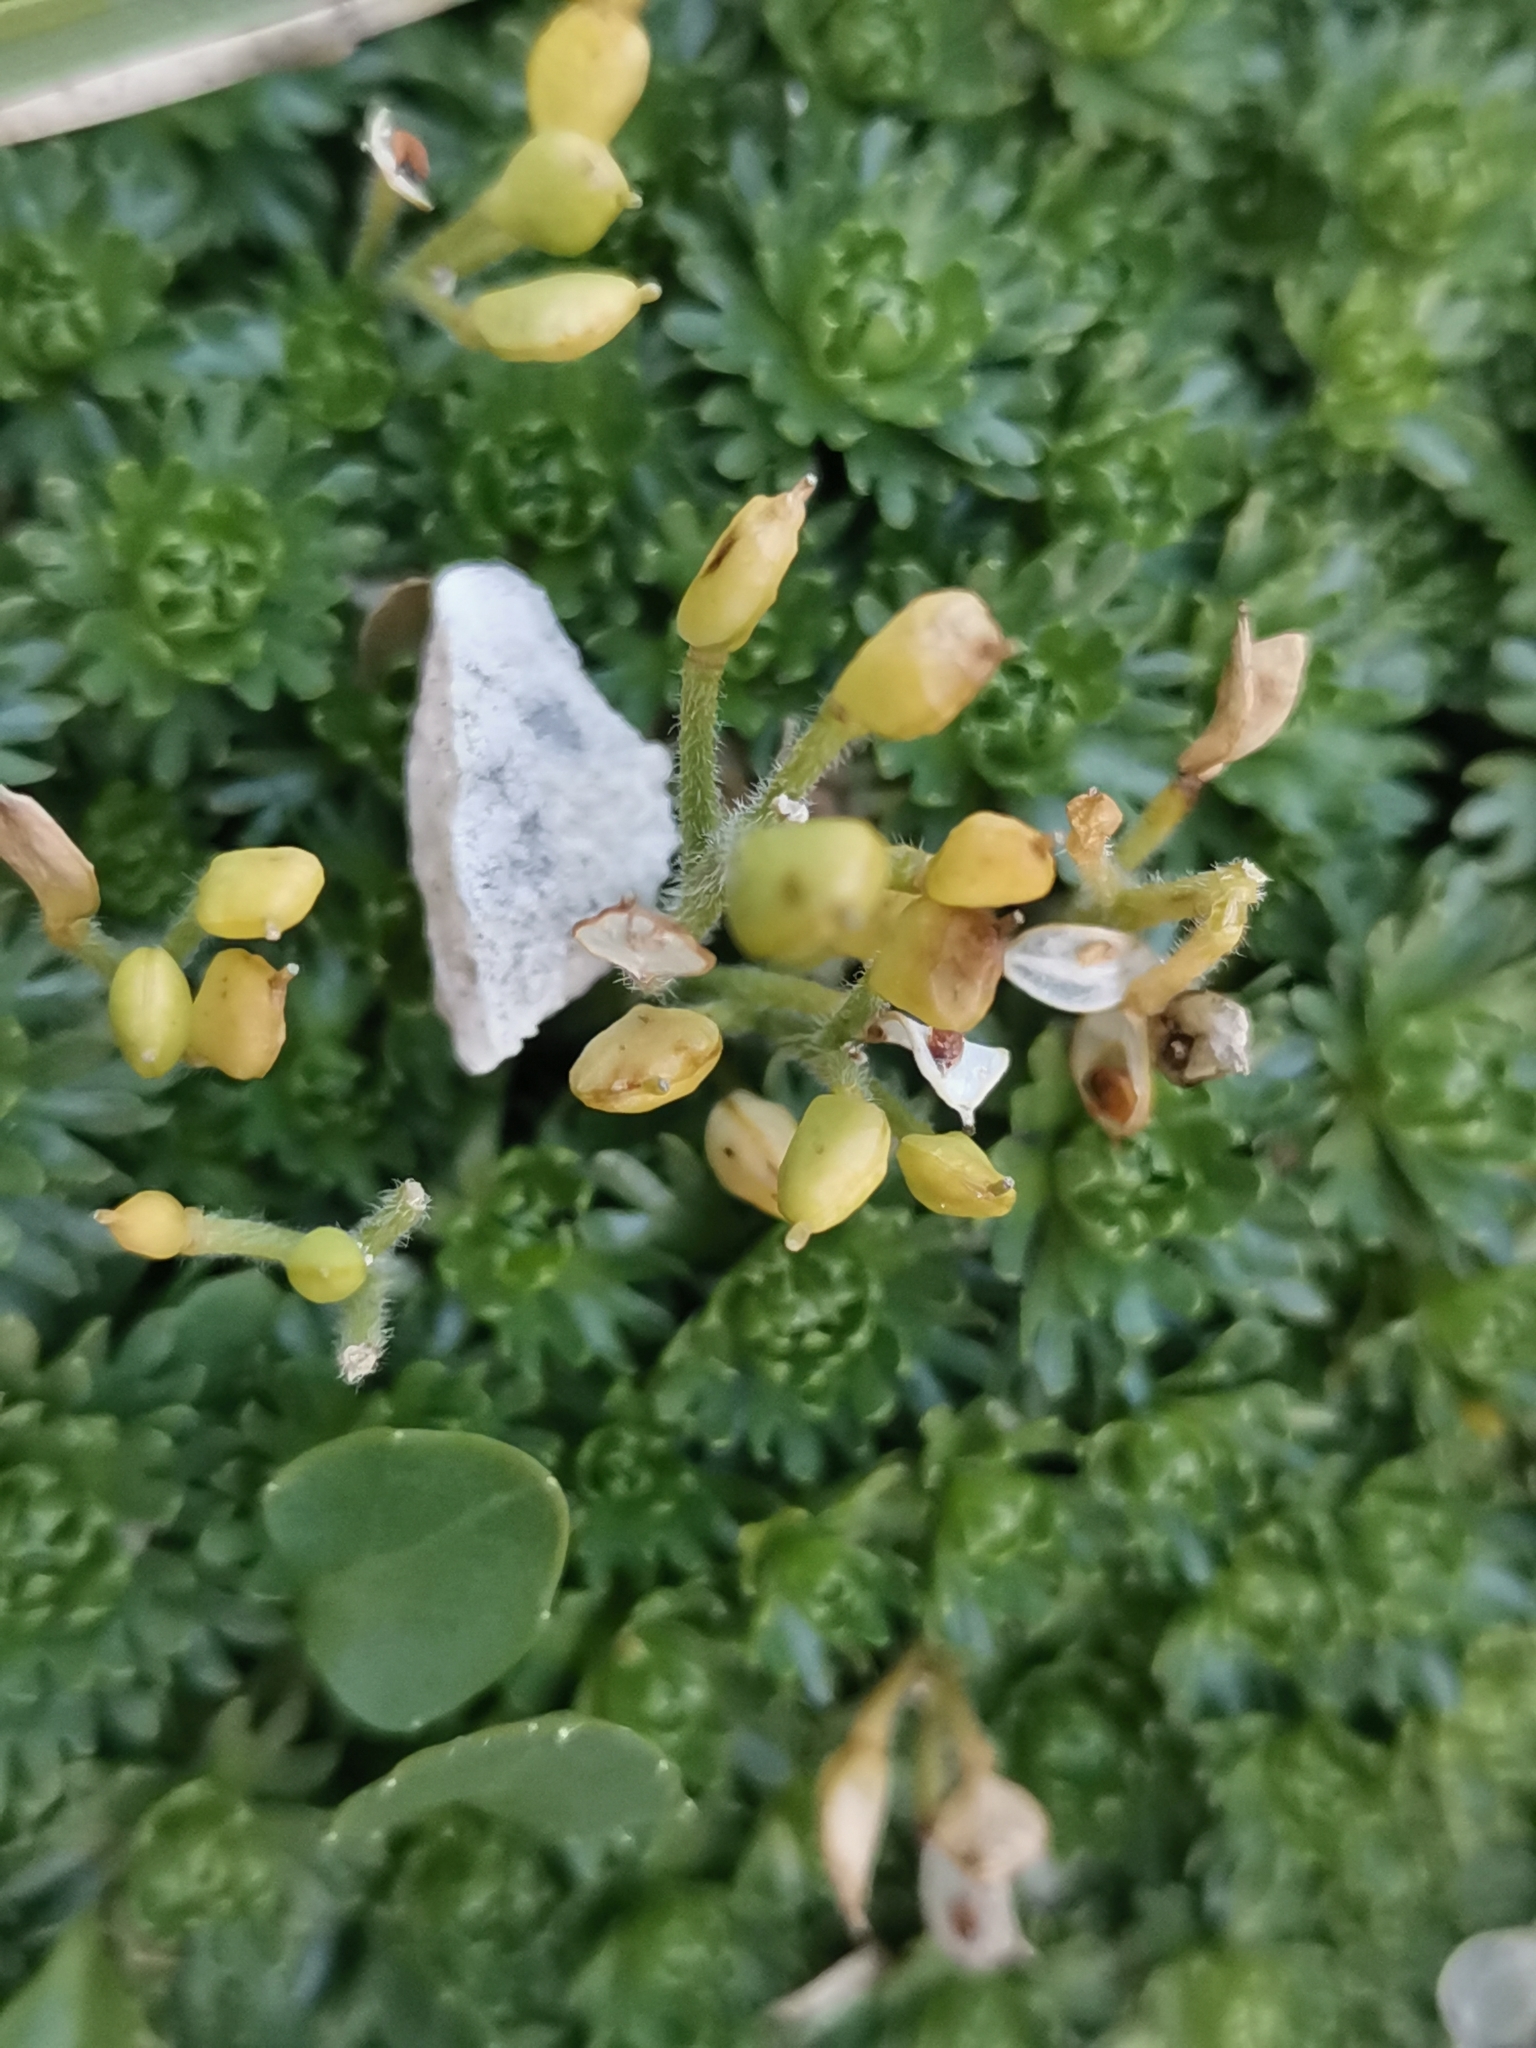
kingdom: Plantae
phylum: Tracheophyta
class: Magnoliopsida
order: Brassicales
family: Brassicaceae
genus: Petrocallis
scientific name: Petrocallis pyrenaica
